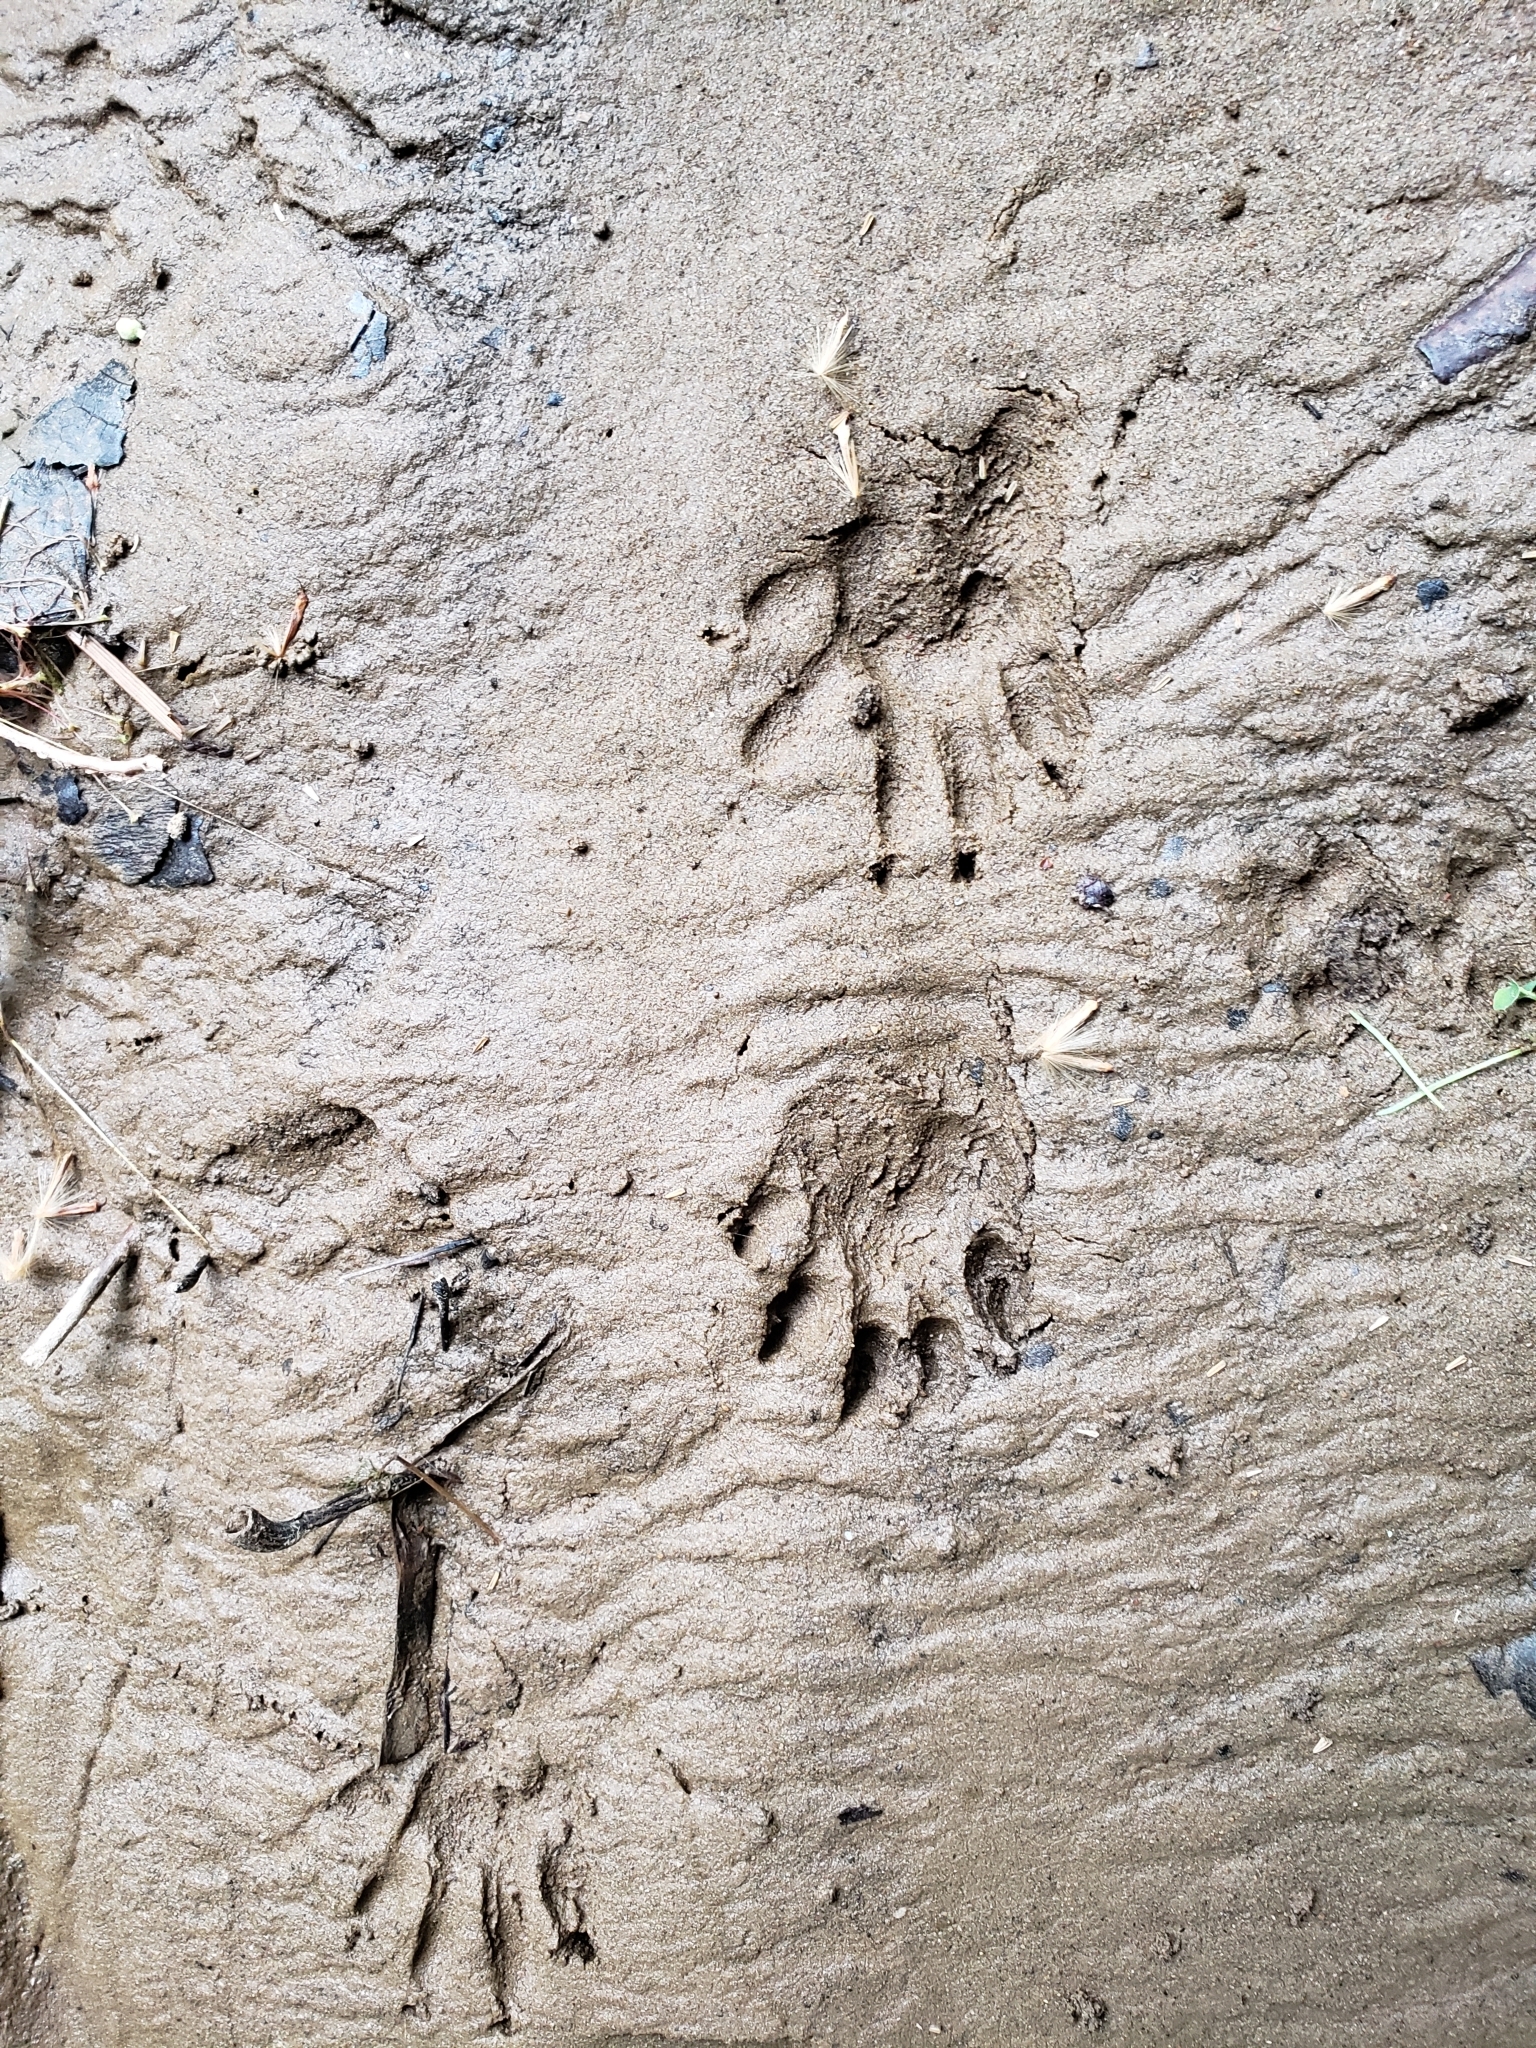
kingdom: Animalia
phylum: Chordata
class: Mammalia
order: Carnivora
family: Procyonidae
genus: Procyon
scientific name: Procyon lotor
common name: Raccoon
